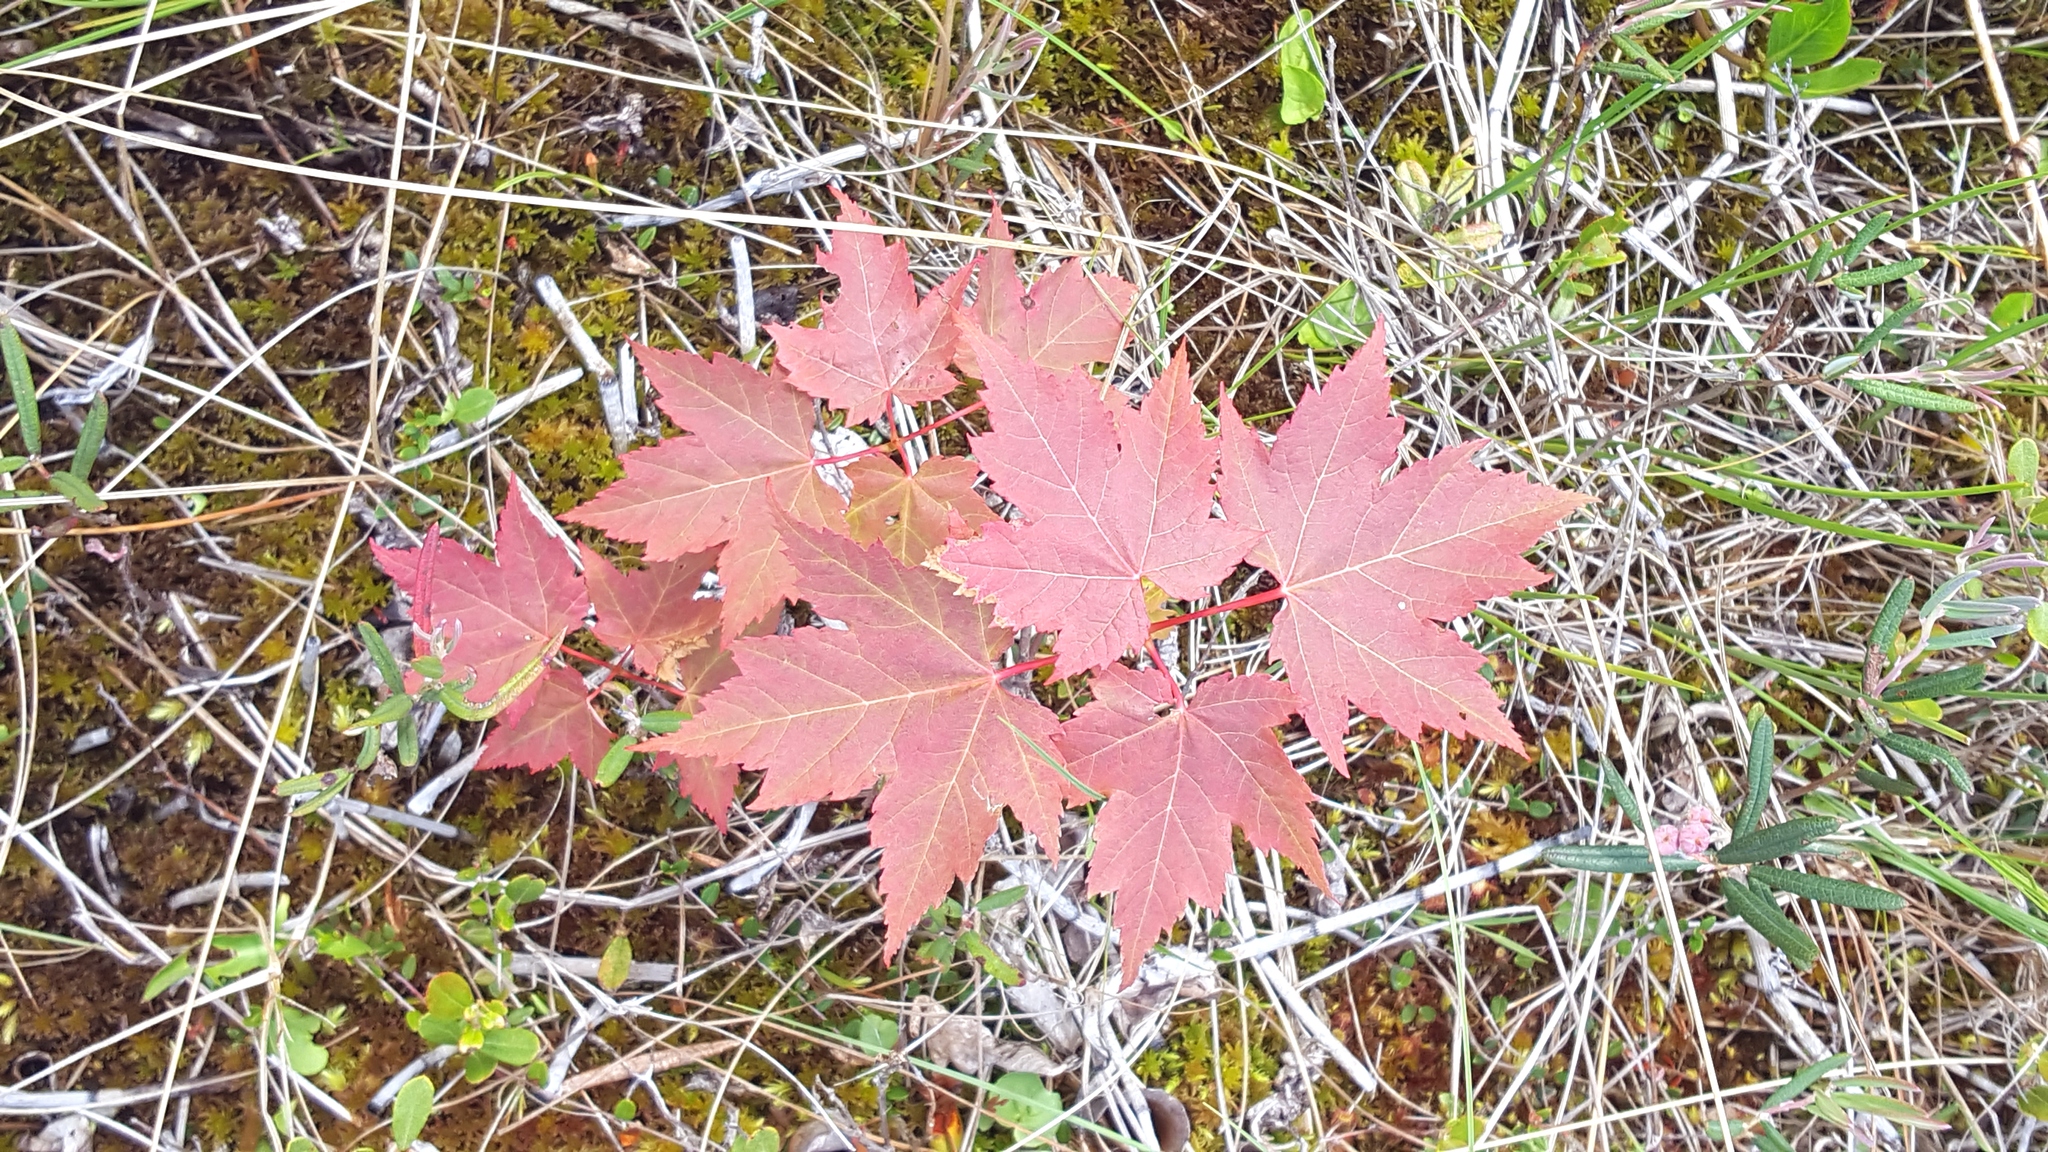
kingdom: Plantae
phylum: Tracheophyta
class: Magnoliopsida
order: Sapindales
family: Sapindaceae
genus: Acer
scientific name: Acer rubrum
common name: Red maple
